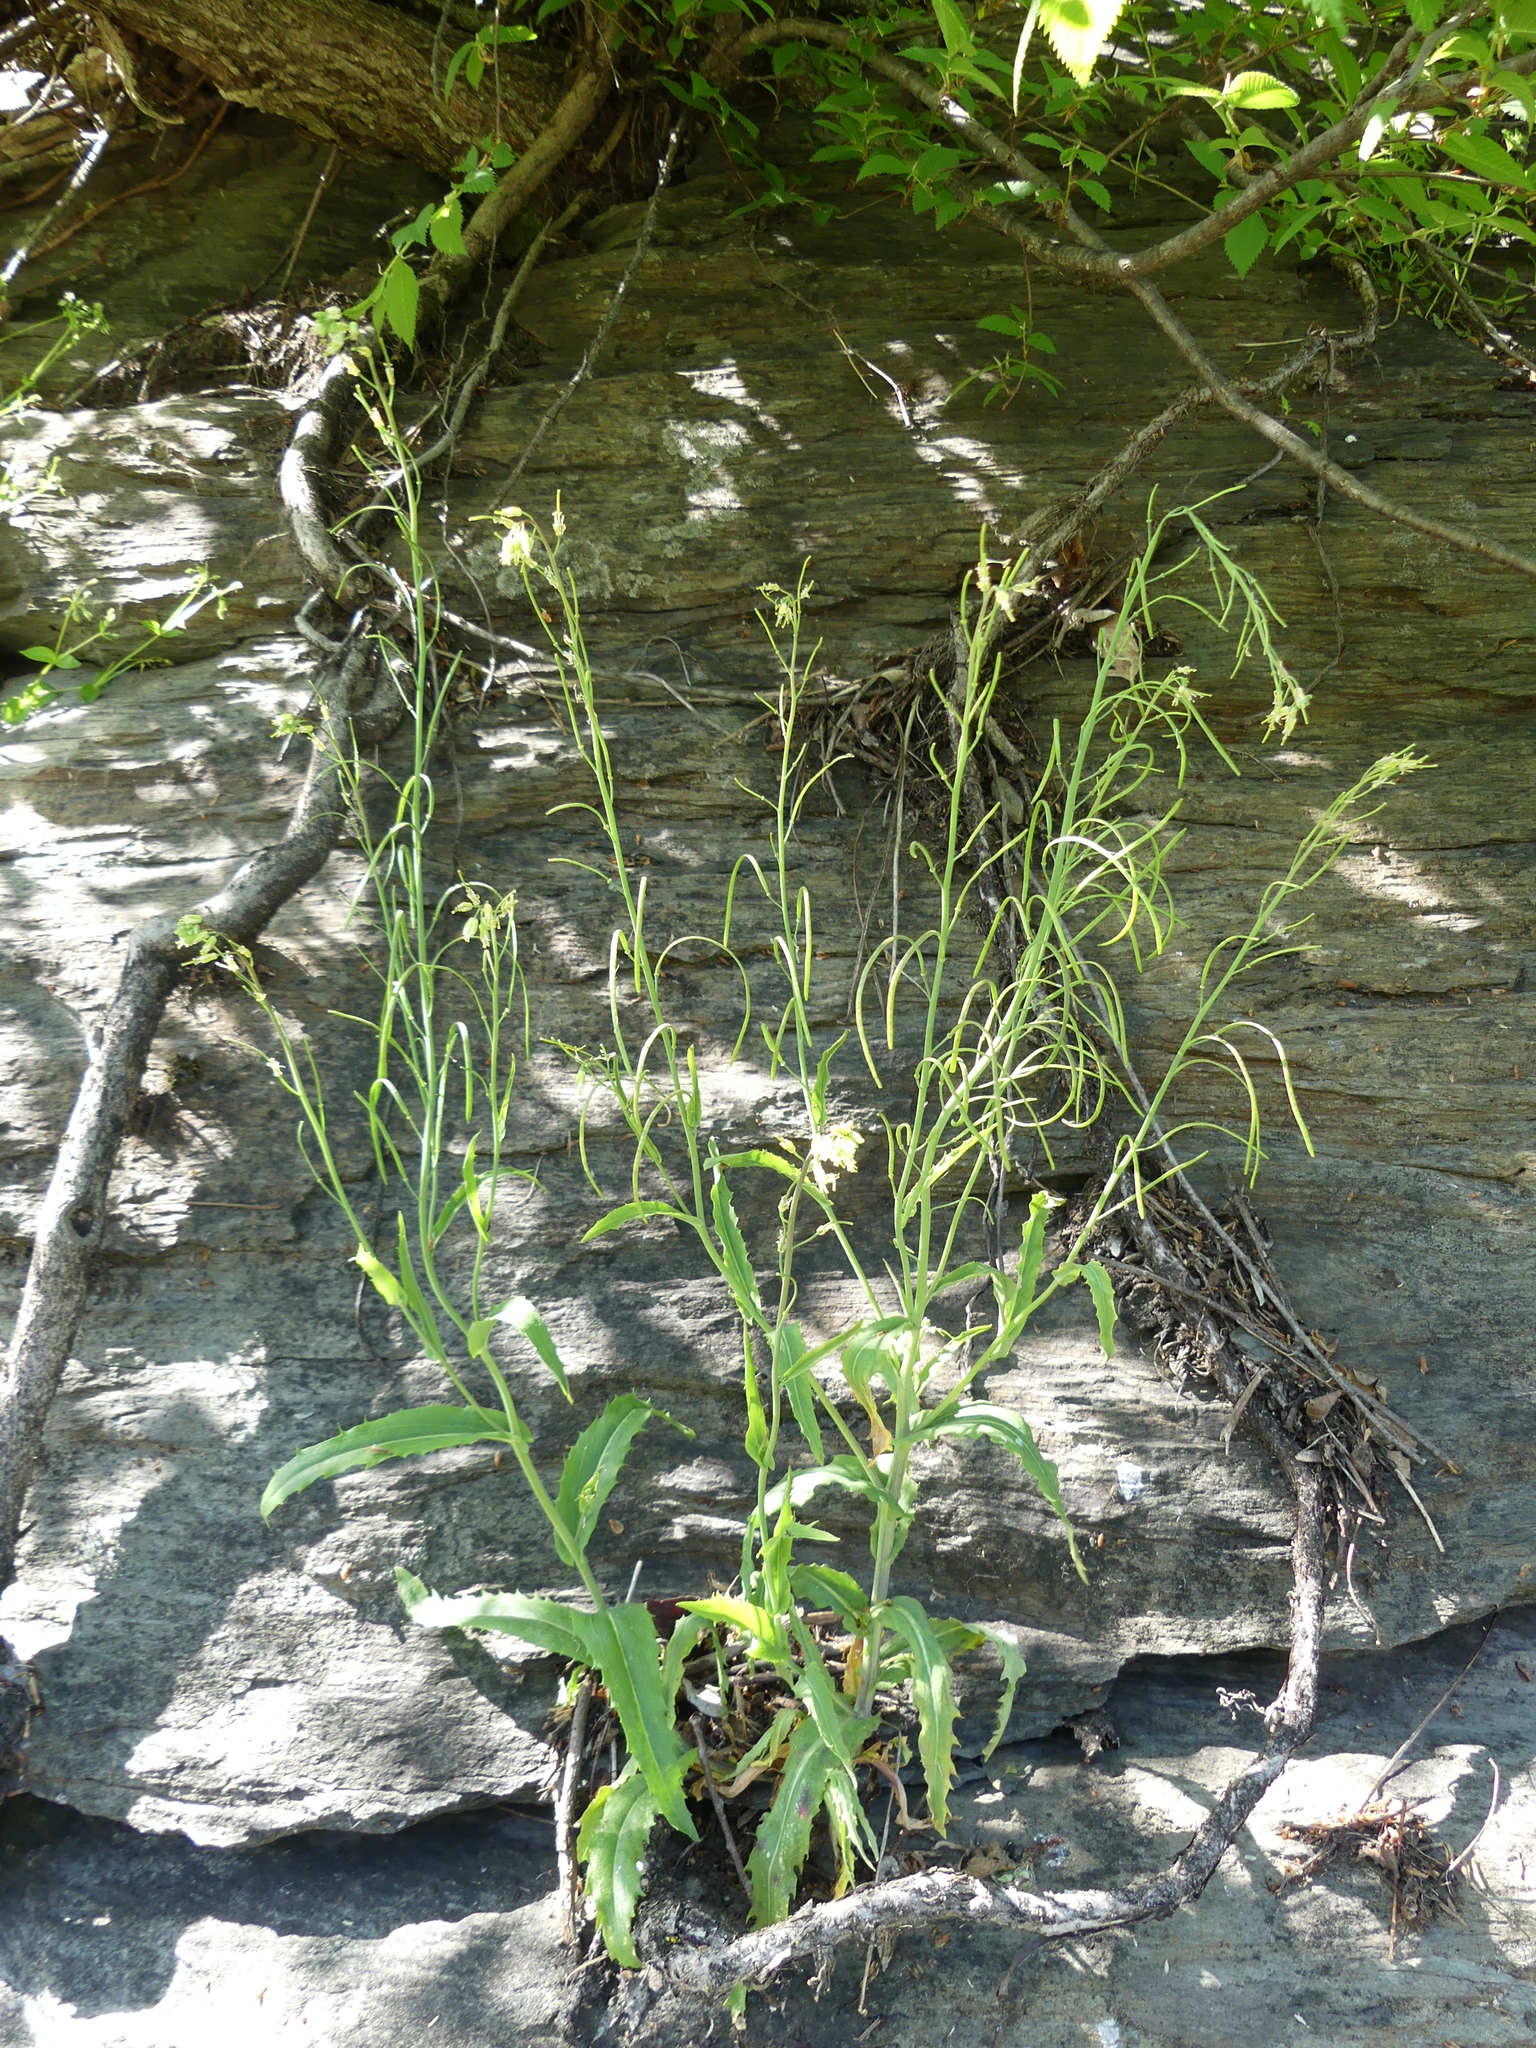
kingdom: Plantae
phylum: Tracheophyta
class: Magnoliopsida
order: Brassicales
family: Brassicaceae
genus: Borodinia
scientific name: Borodinia laevigata
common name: Smooth rockcress
